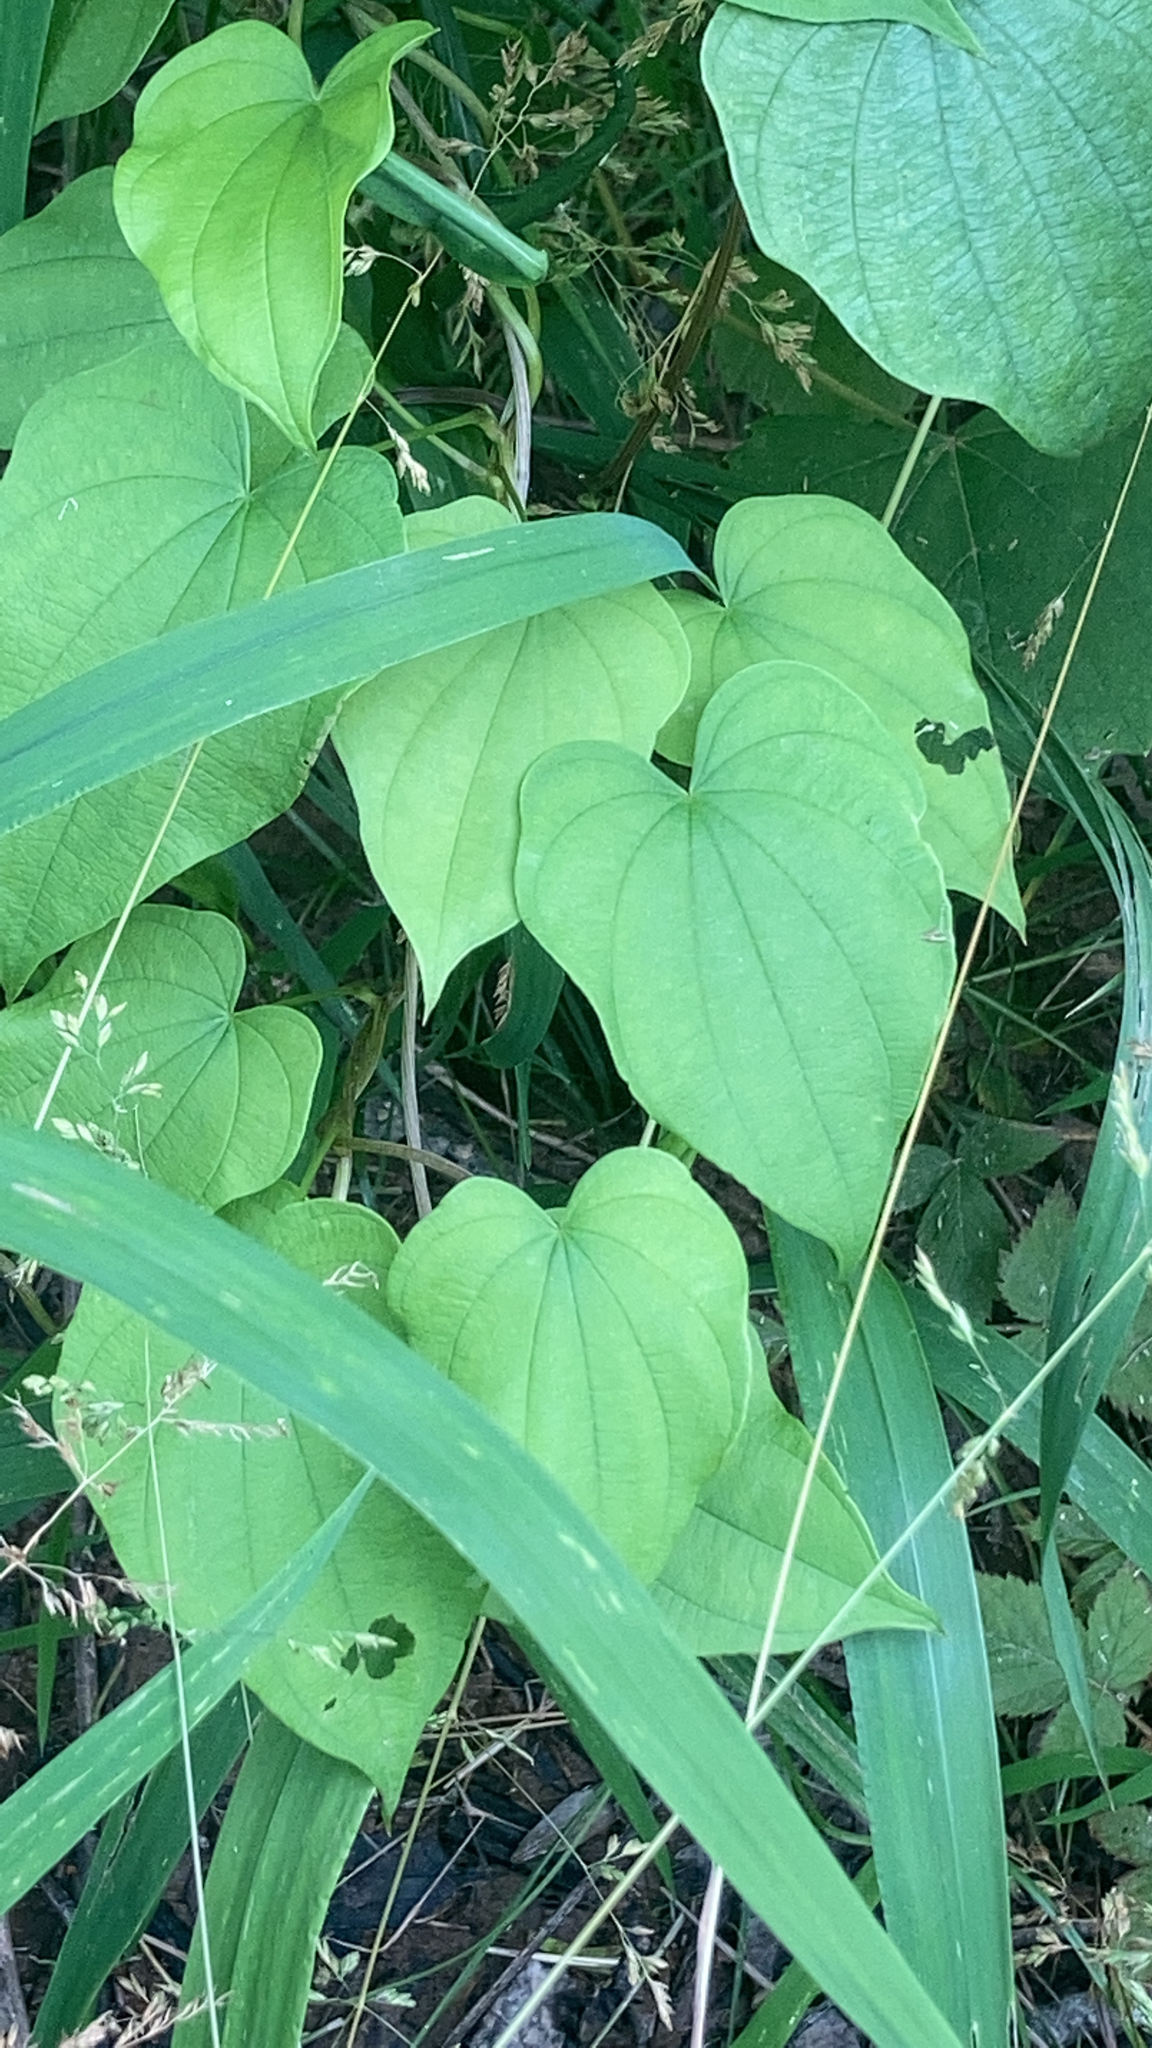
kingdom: Plantae
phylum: Tracheophyta
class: Liliopsida
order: Dioscoreales
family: Dioscoreaceae
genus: Dioscorea
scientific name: Dioscorea villosa
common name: Wild yam
